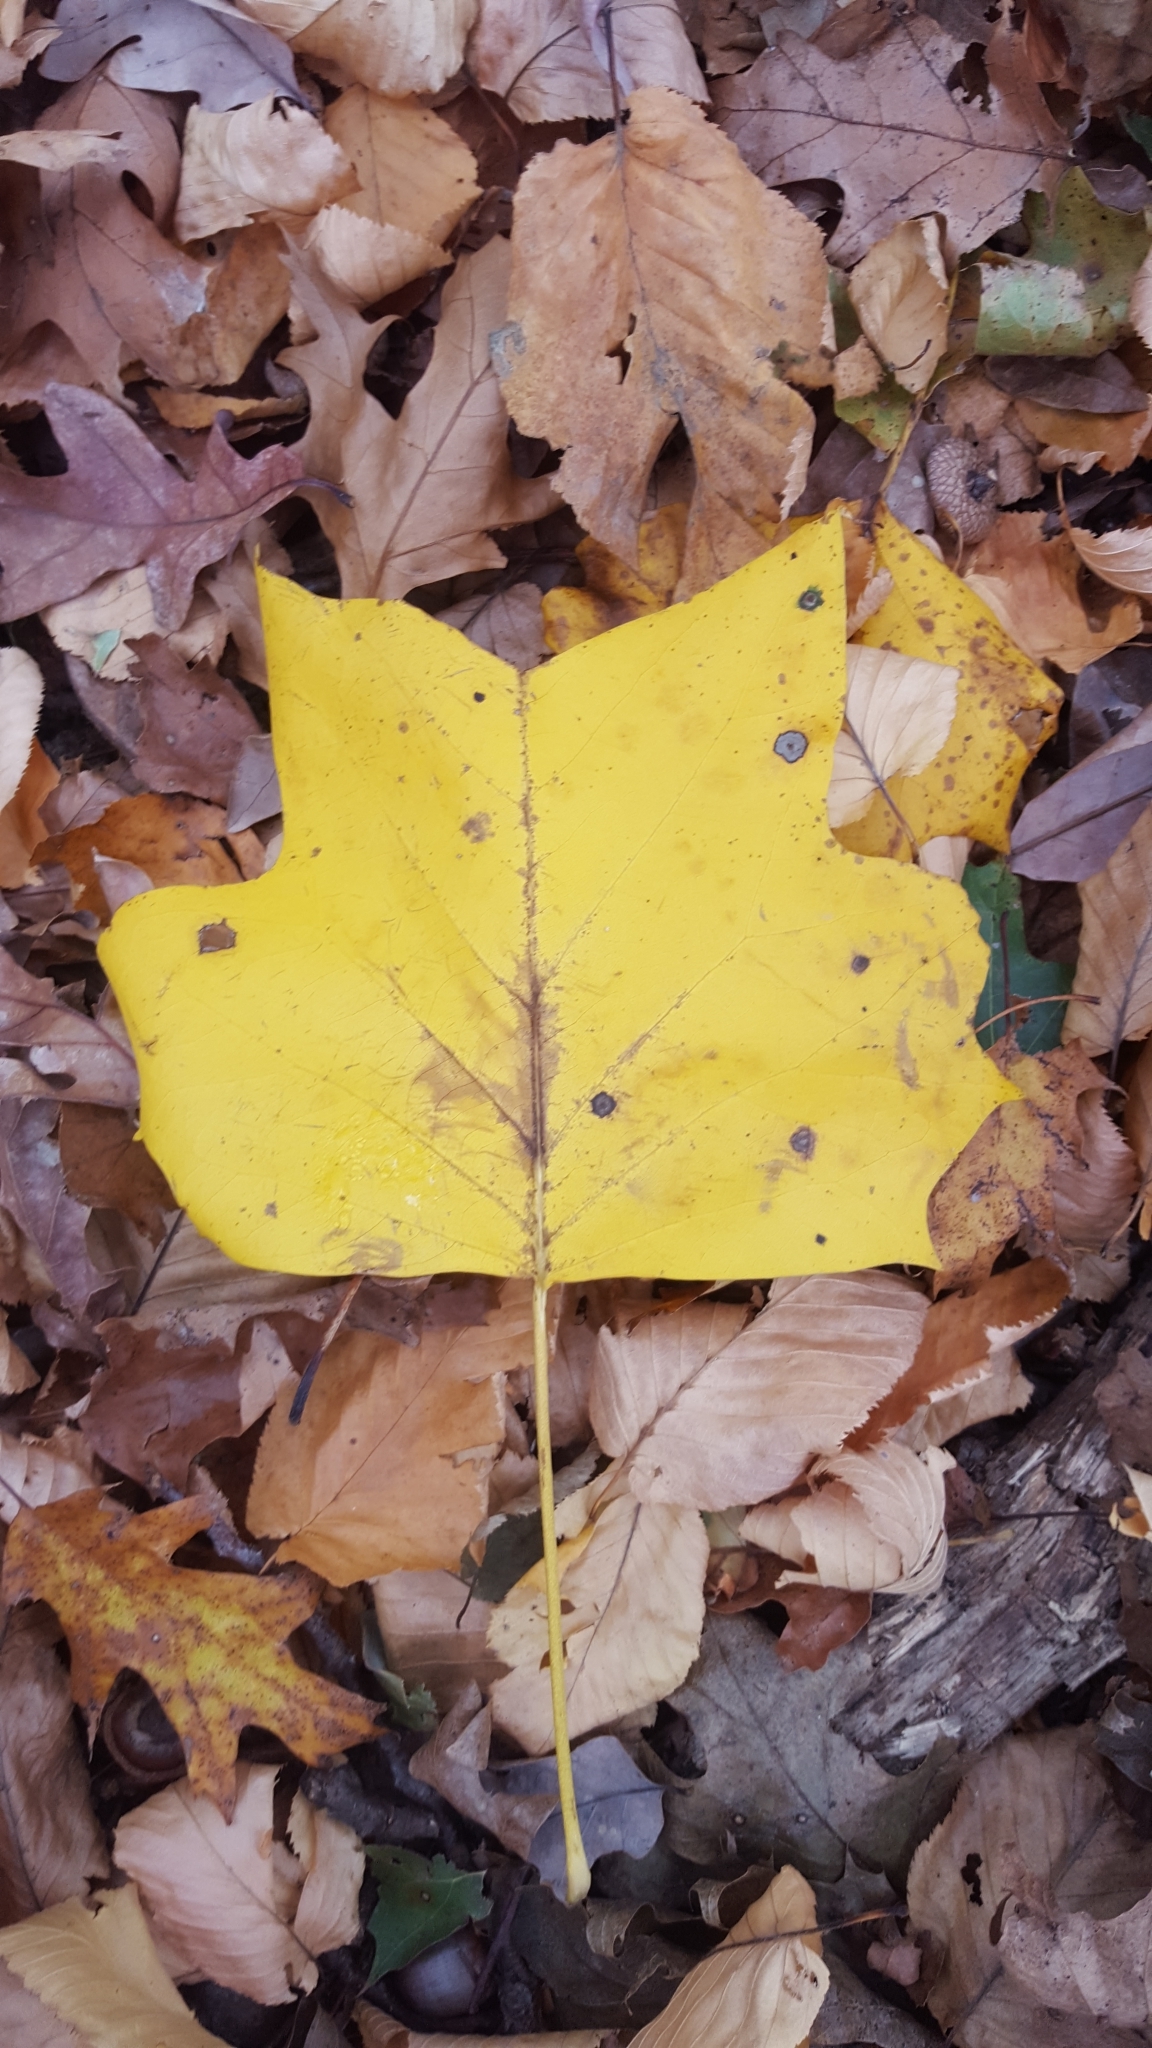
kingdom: Plantae
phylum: Tracheophyta
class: Magnoliopsida
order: Magnoliales
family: Magnoliaceae
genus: Liriodendron
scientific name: Liriodendron tulipifera
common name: Tulip tree
